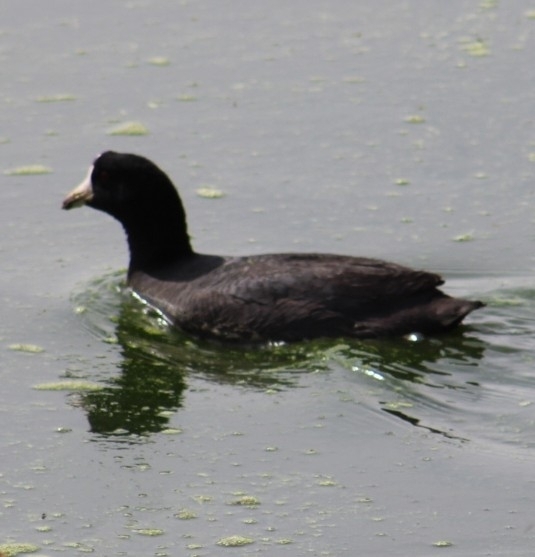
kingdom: Animalia
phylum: Chordata
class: Aves
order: Gruiformes
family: Rallidae
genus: Fulica
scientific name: Fulica americana
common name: American coot
